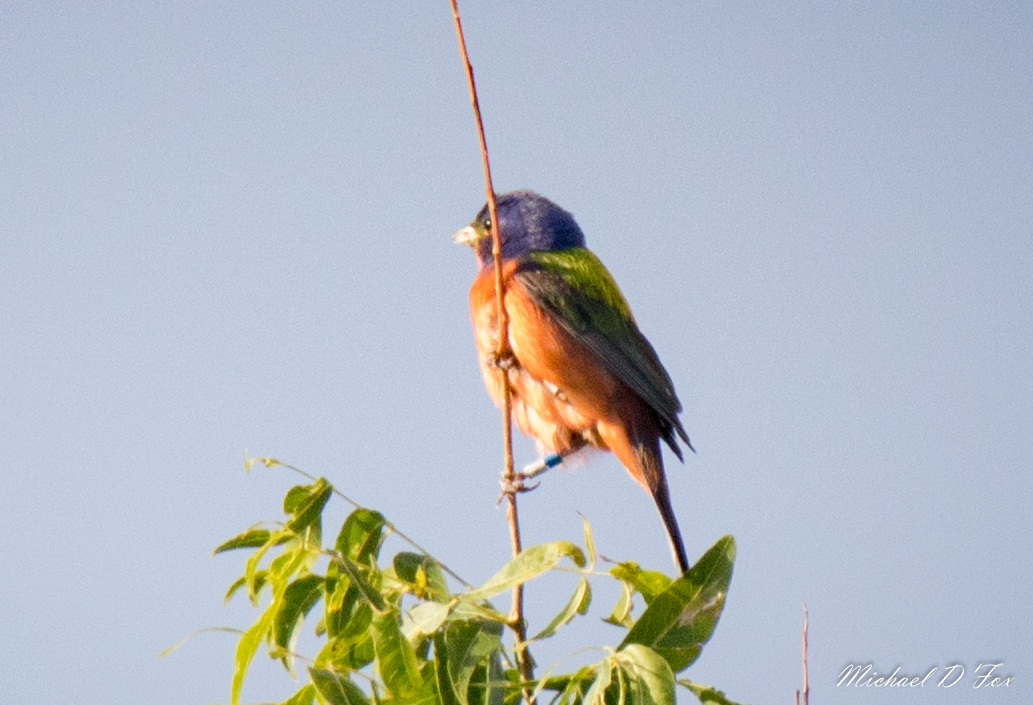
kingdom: Animalia
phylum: Chordata
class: Aves
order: Passeriformes
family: Cardinalidae
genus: Passerina
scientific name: Passerina ciris
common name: Painted bunting
